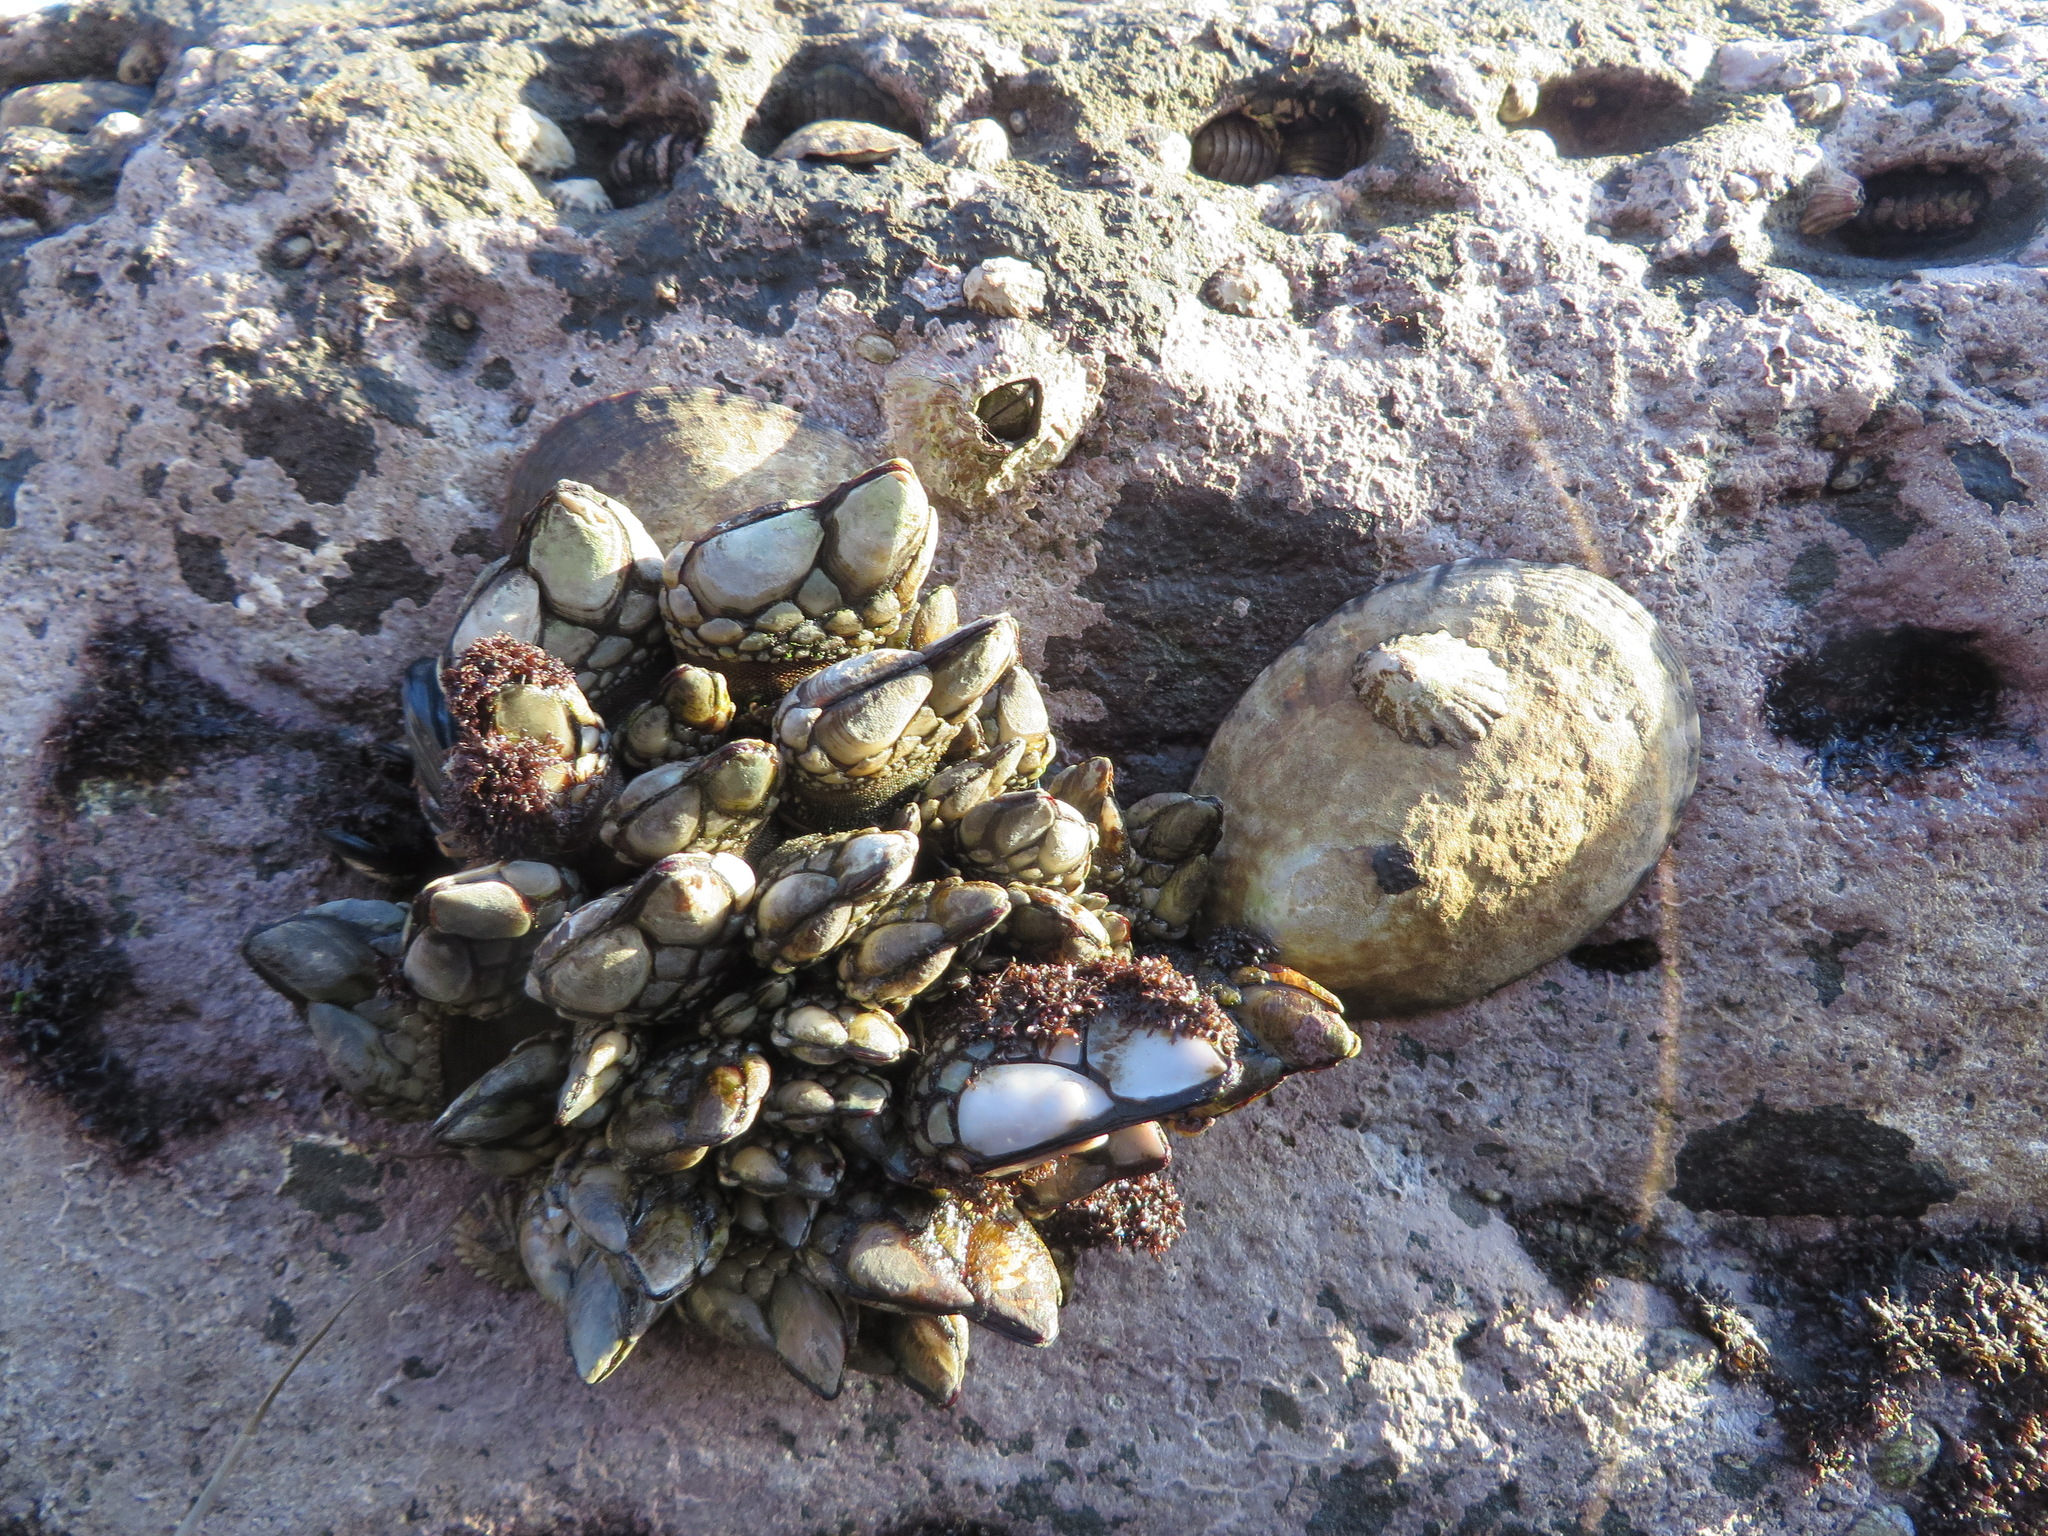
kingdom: Animalia
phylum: Mollusca
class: Gastropoda
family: Lottiidae
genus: Lottia
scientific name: Lottia gigantea
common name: Owl limpet
